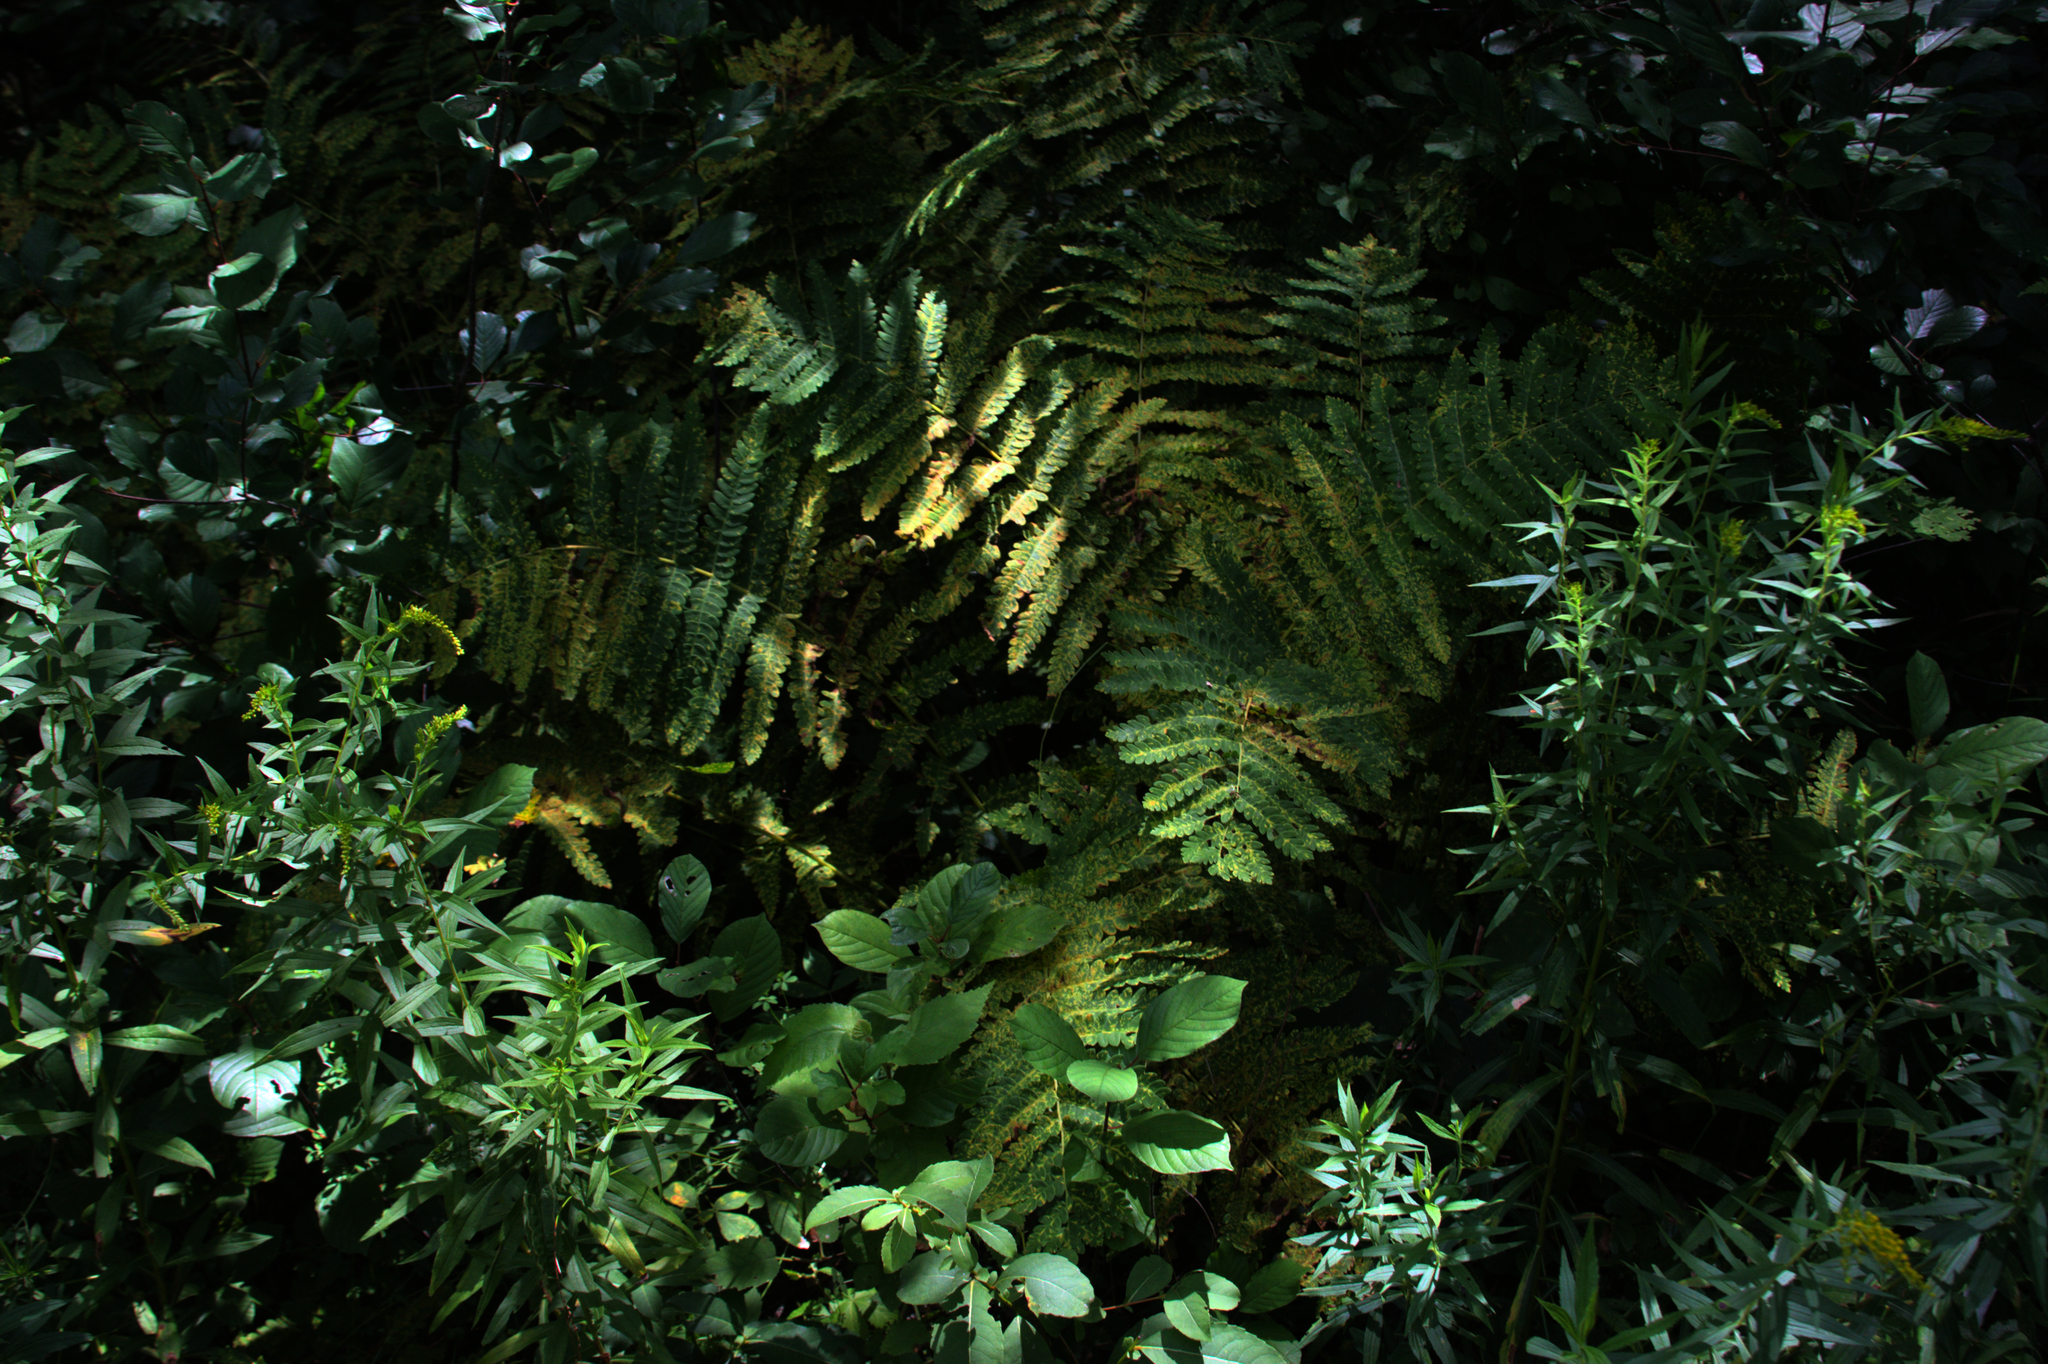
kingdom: Plantae
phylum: Tracheophyta
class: Polypodiopsida
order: Osmundales
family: Osmundaceae
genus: Claytosmunda
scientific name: Claytosmunda claytoniana
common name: Clayton's fern
